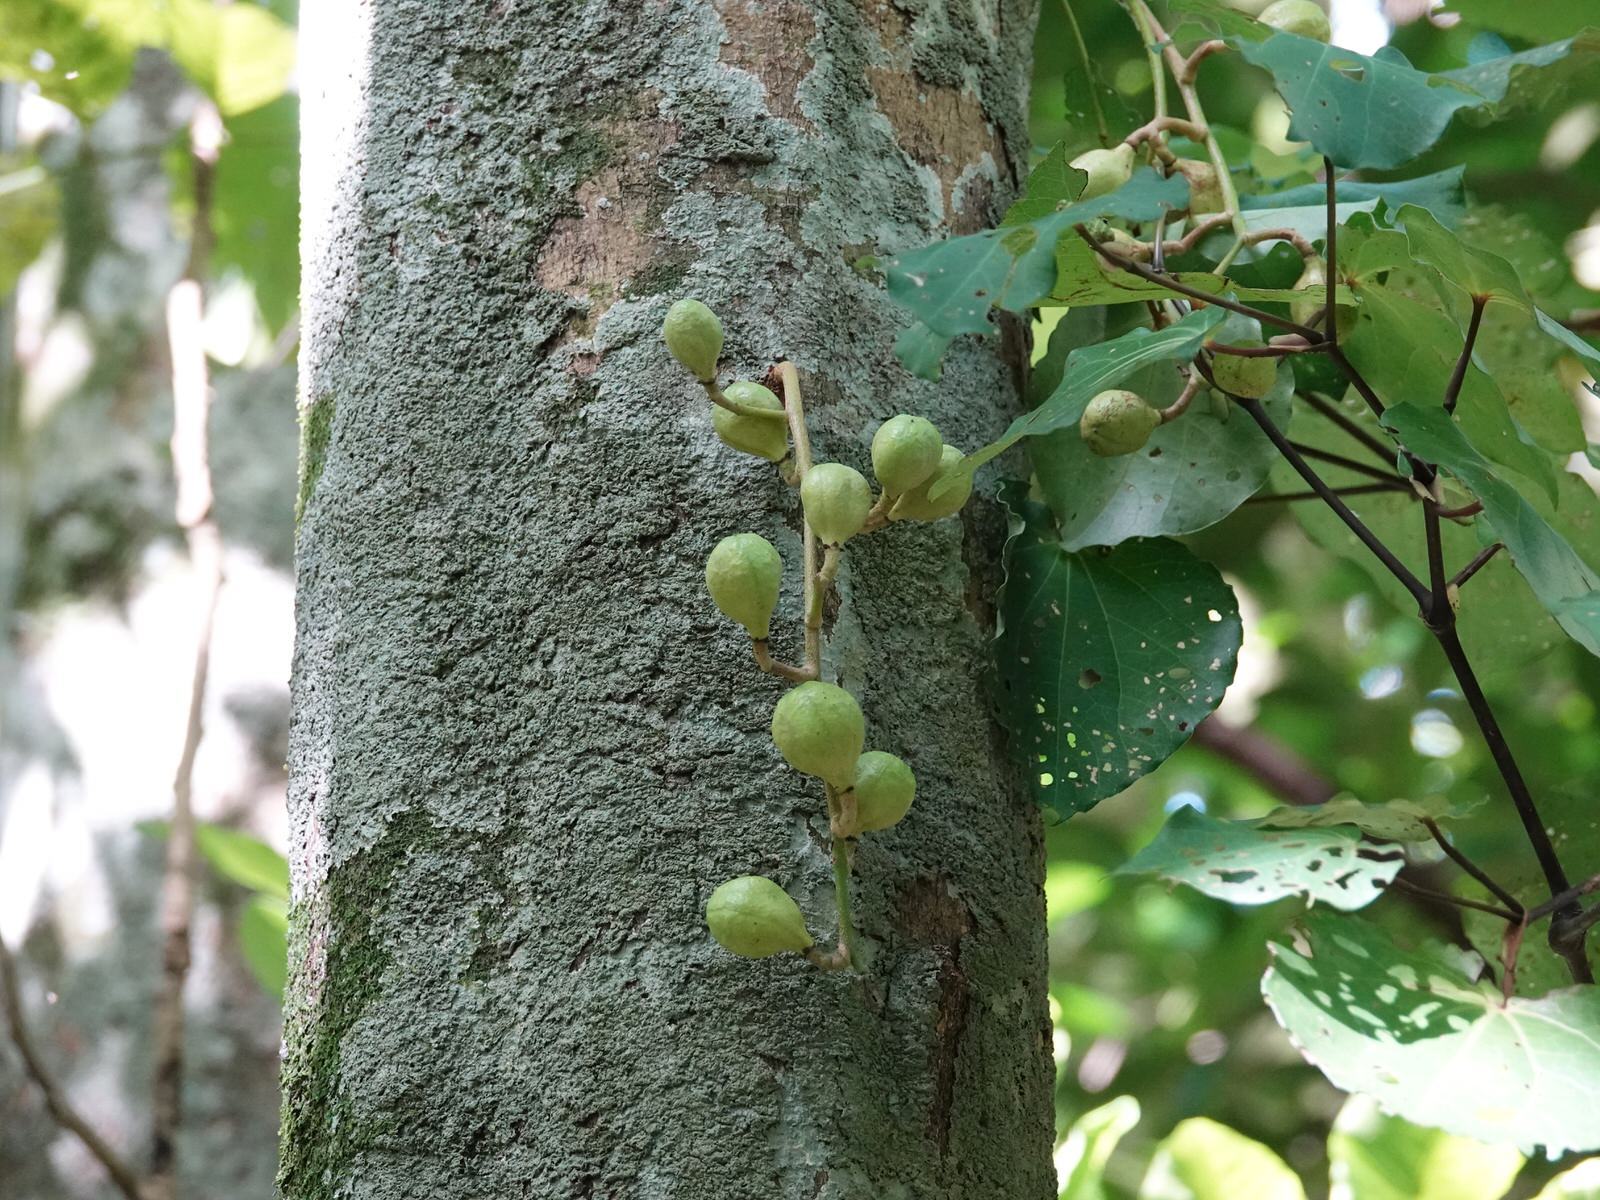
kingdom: Plantae
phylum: Tracheophyta
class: Magnoliopsida
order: Sapindales
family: Meliaceae
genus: Didymocheton
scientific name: Didymocheton spectabilis
